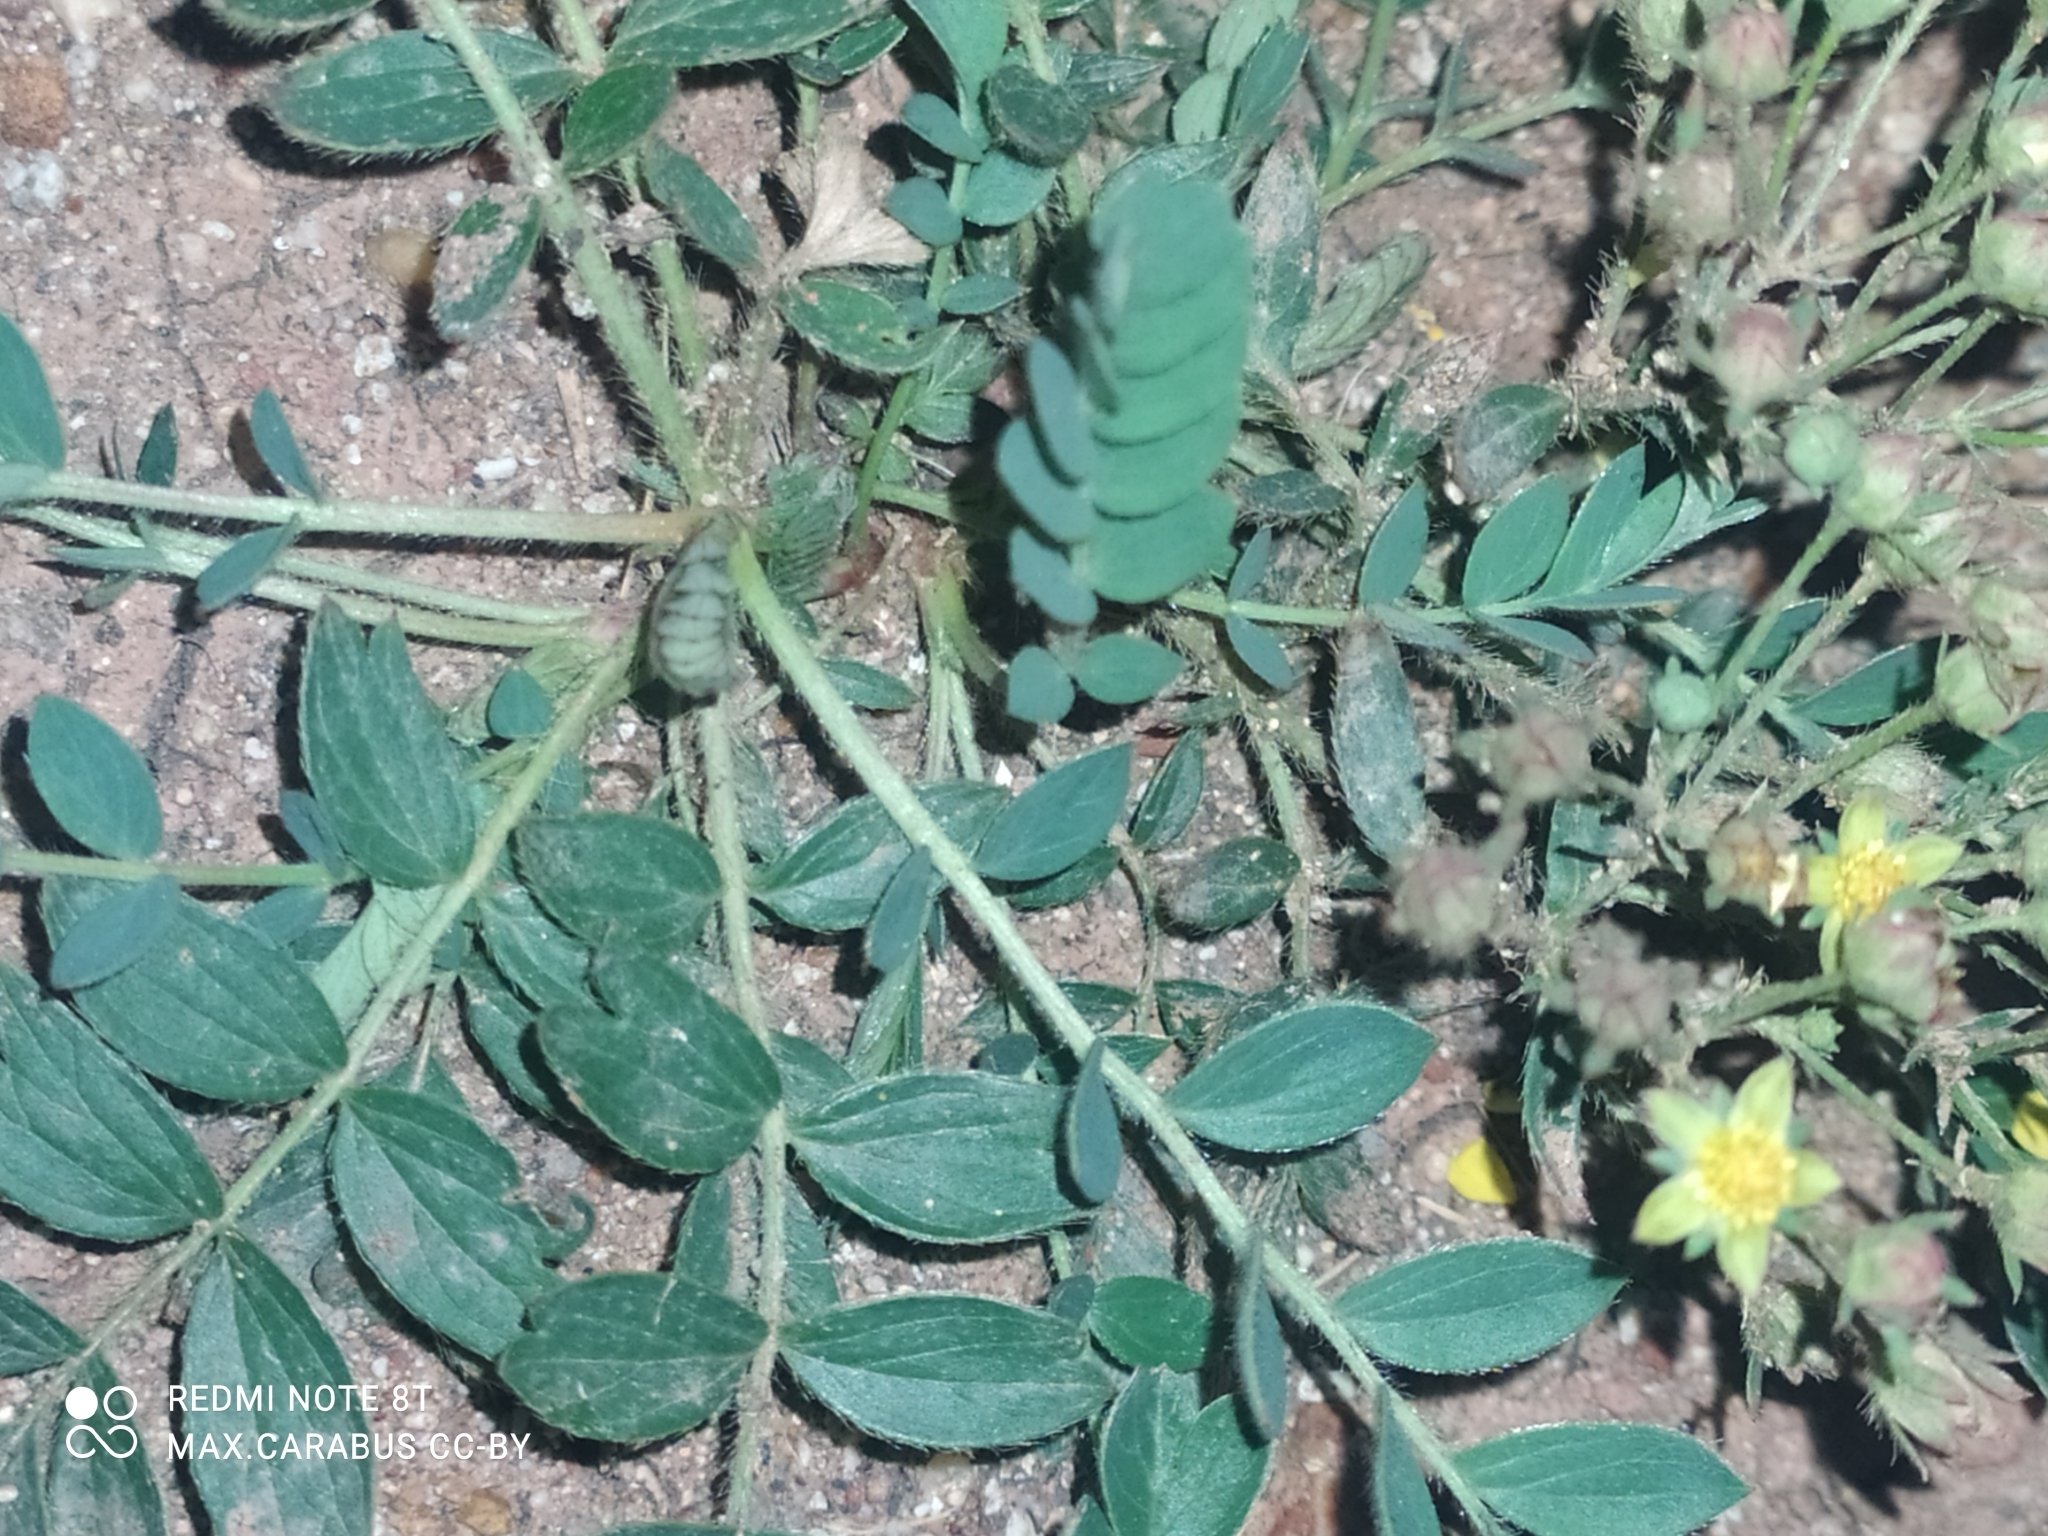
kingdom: Plantae
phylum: Tracheophyta
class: Magnoliopsida
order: Rosales
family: Rosaceae
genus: Sibbaldianthe
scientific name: Sibbaldianthe bifurca
